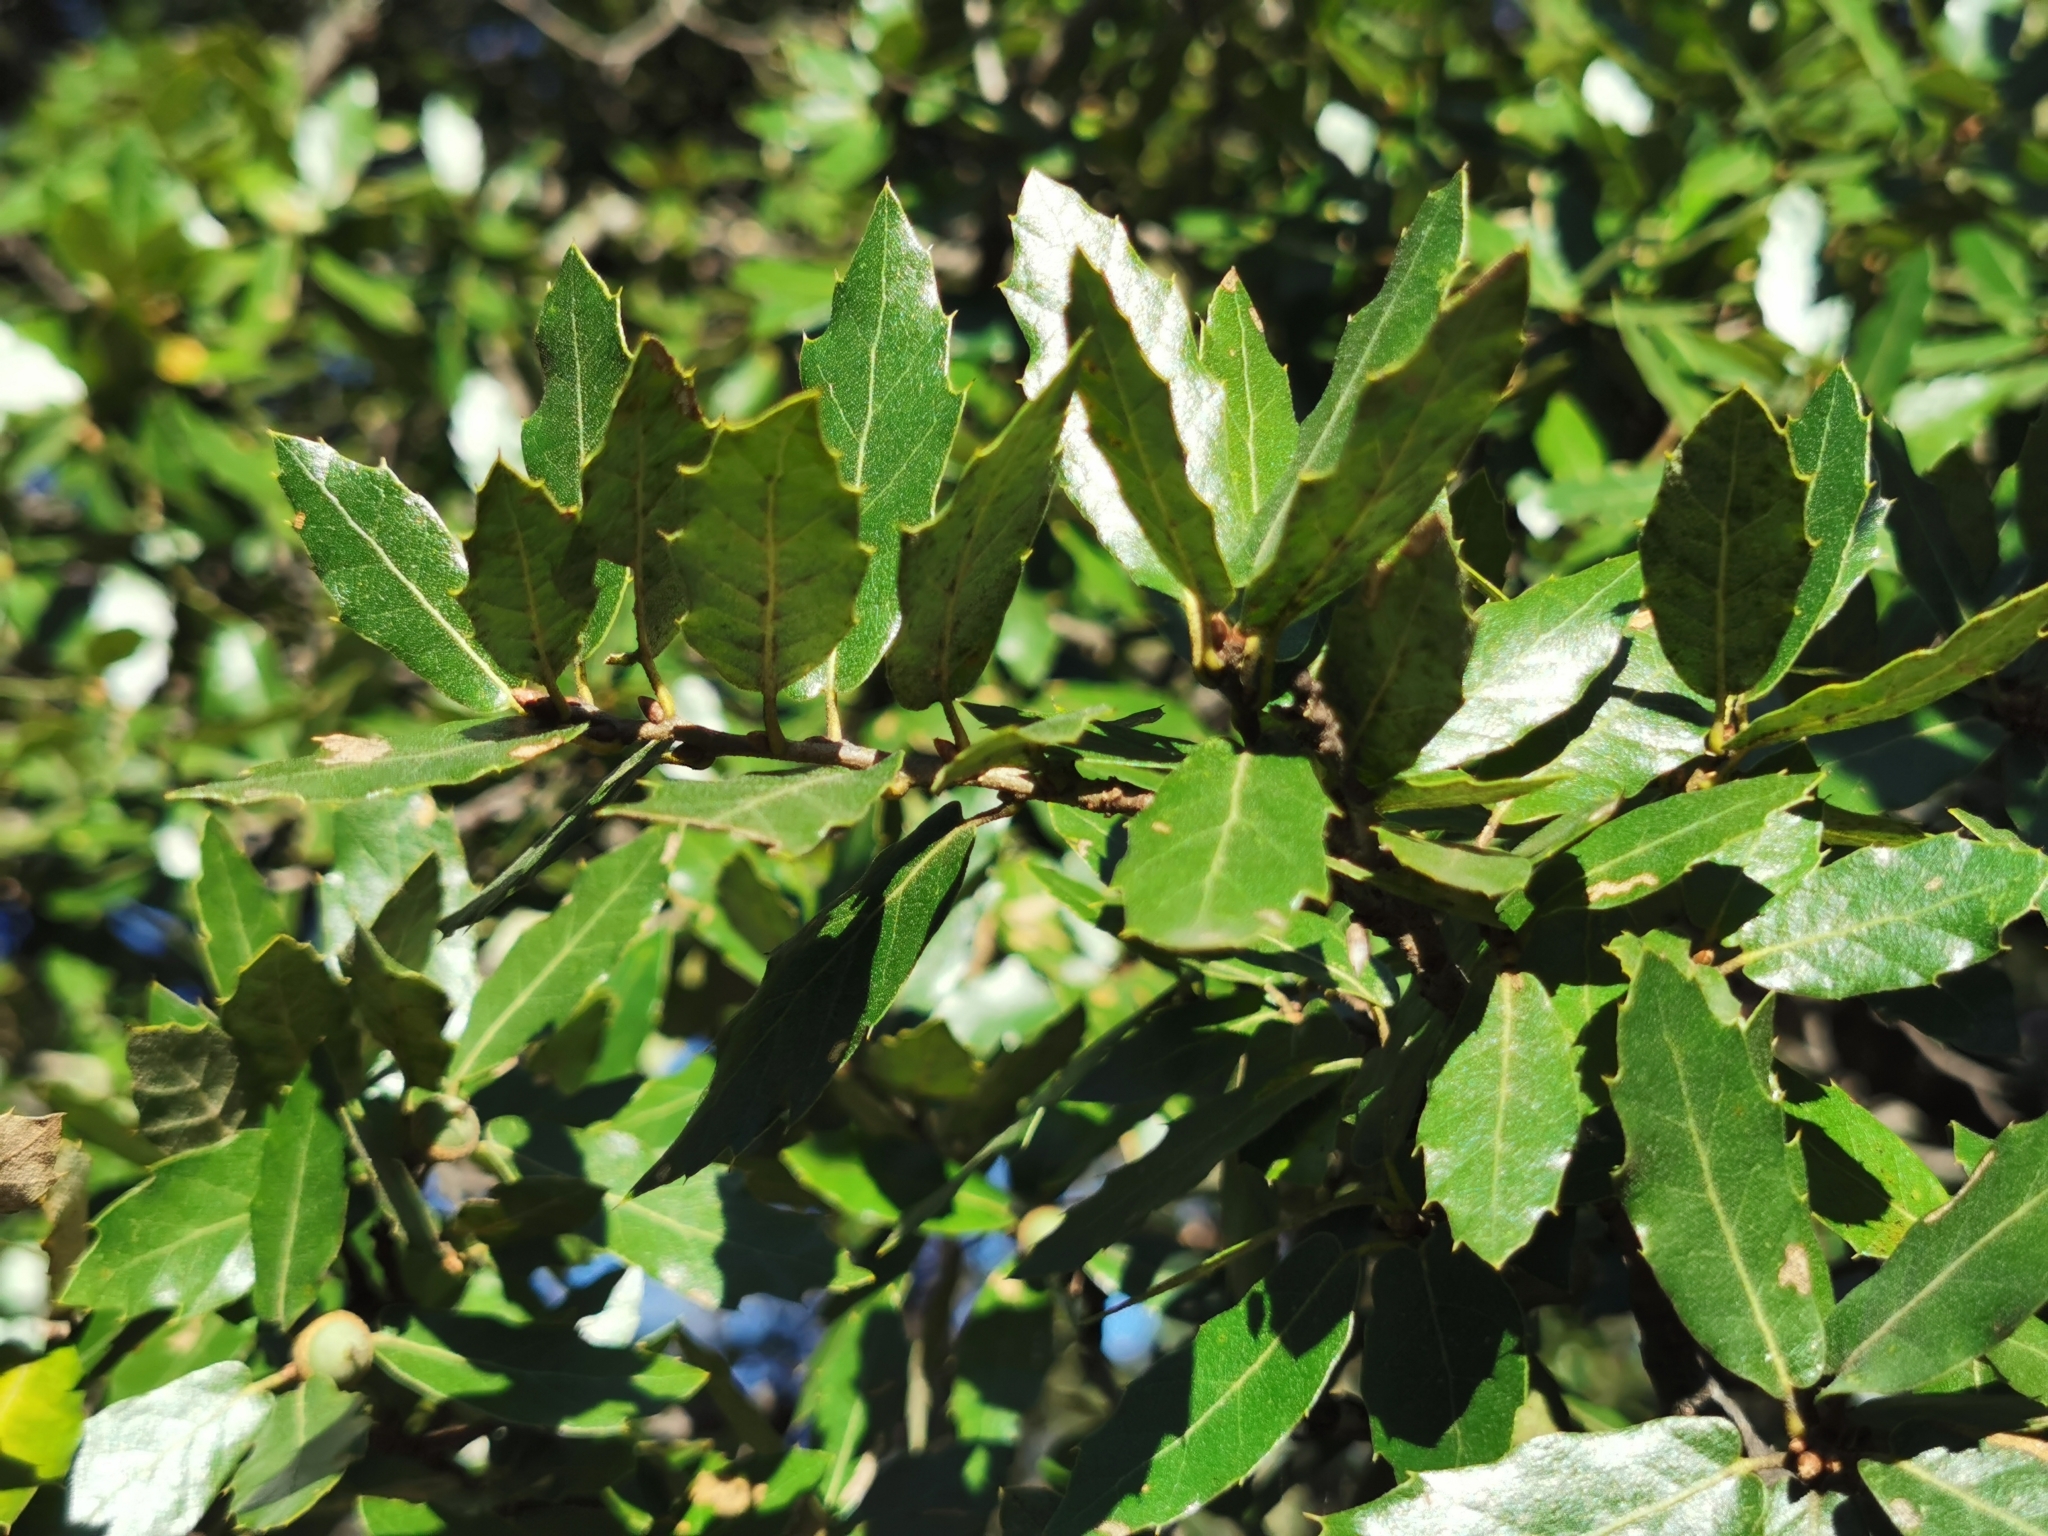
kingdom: Plantae
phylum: Tracheophyta
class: Magnoliopsida
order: Fagales
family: Fagaceae
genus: Quercus
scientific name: Quercus eduardi
